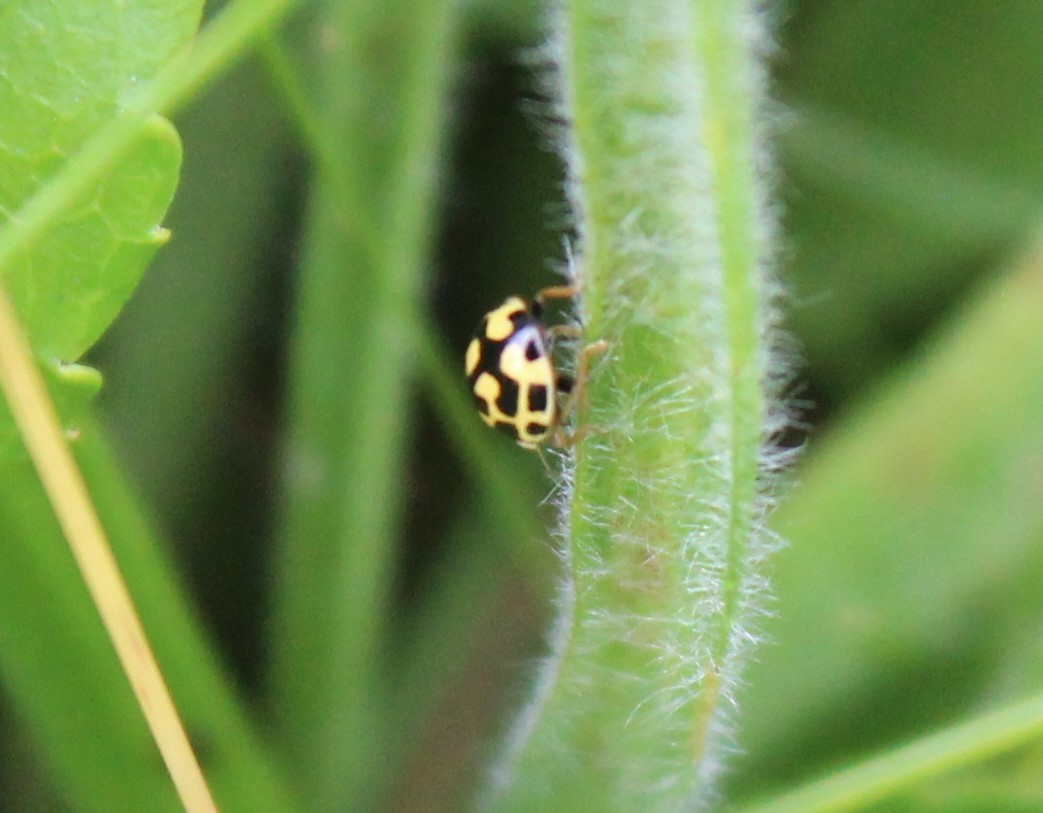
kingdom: Animalia
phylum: Arthropoda
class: Insecta
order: Coleoptera
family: Coccinellidae
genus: Propylaea
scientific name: Propylaea quatuordecimpunctata
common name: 14-spotted ladybird beetle
